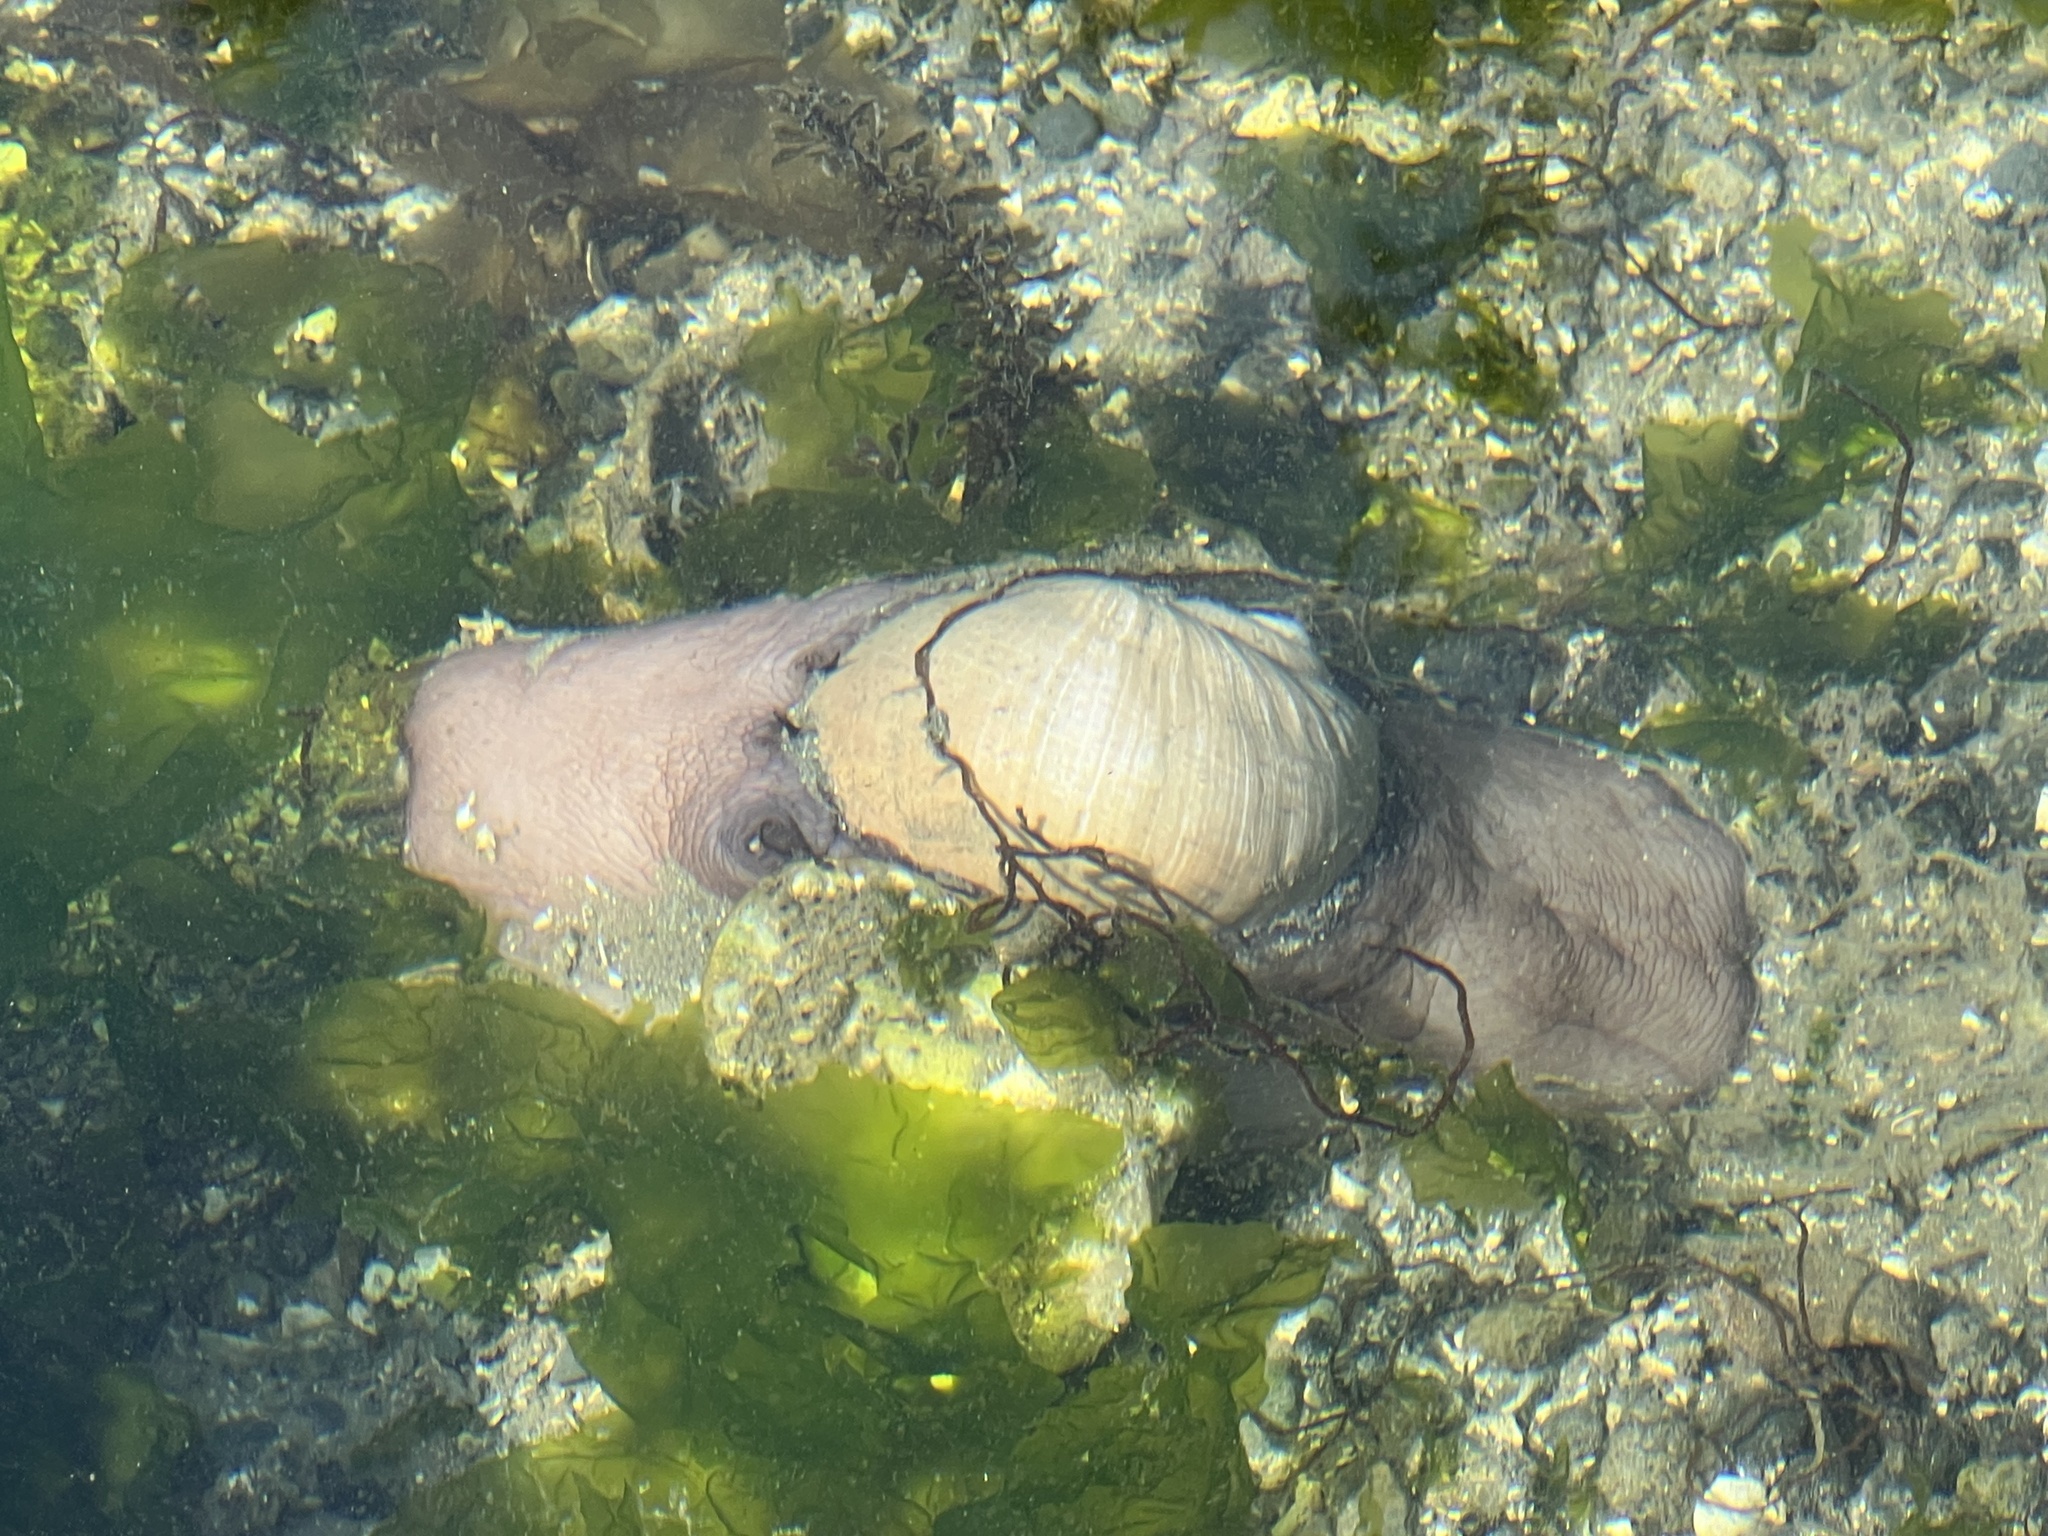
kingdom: Animalia
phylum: Mollusca
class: Gastropoda
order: Littorinimorpha
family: Naticidae
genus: Neverita
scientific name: Neverita lewisii
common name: Lewis' moonsnail
